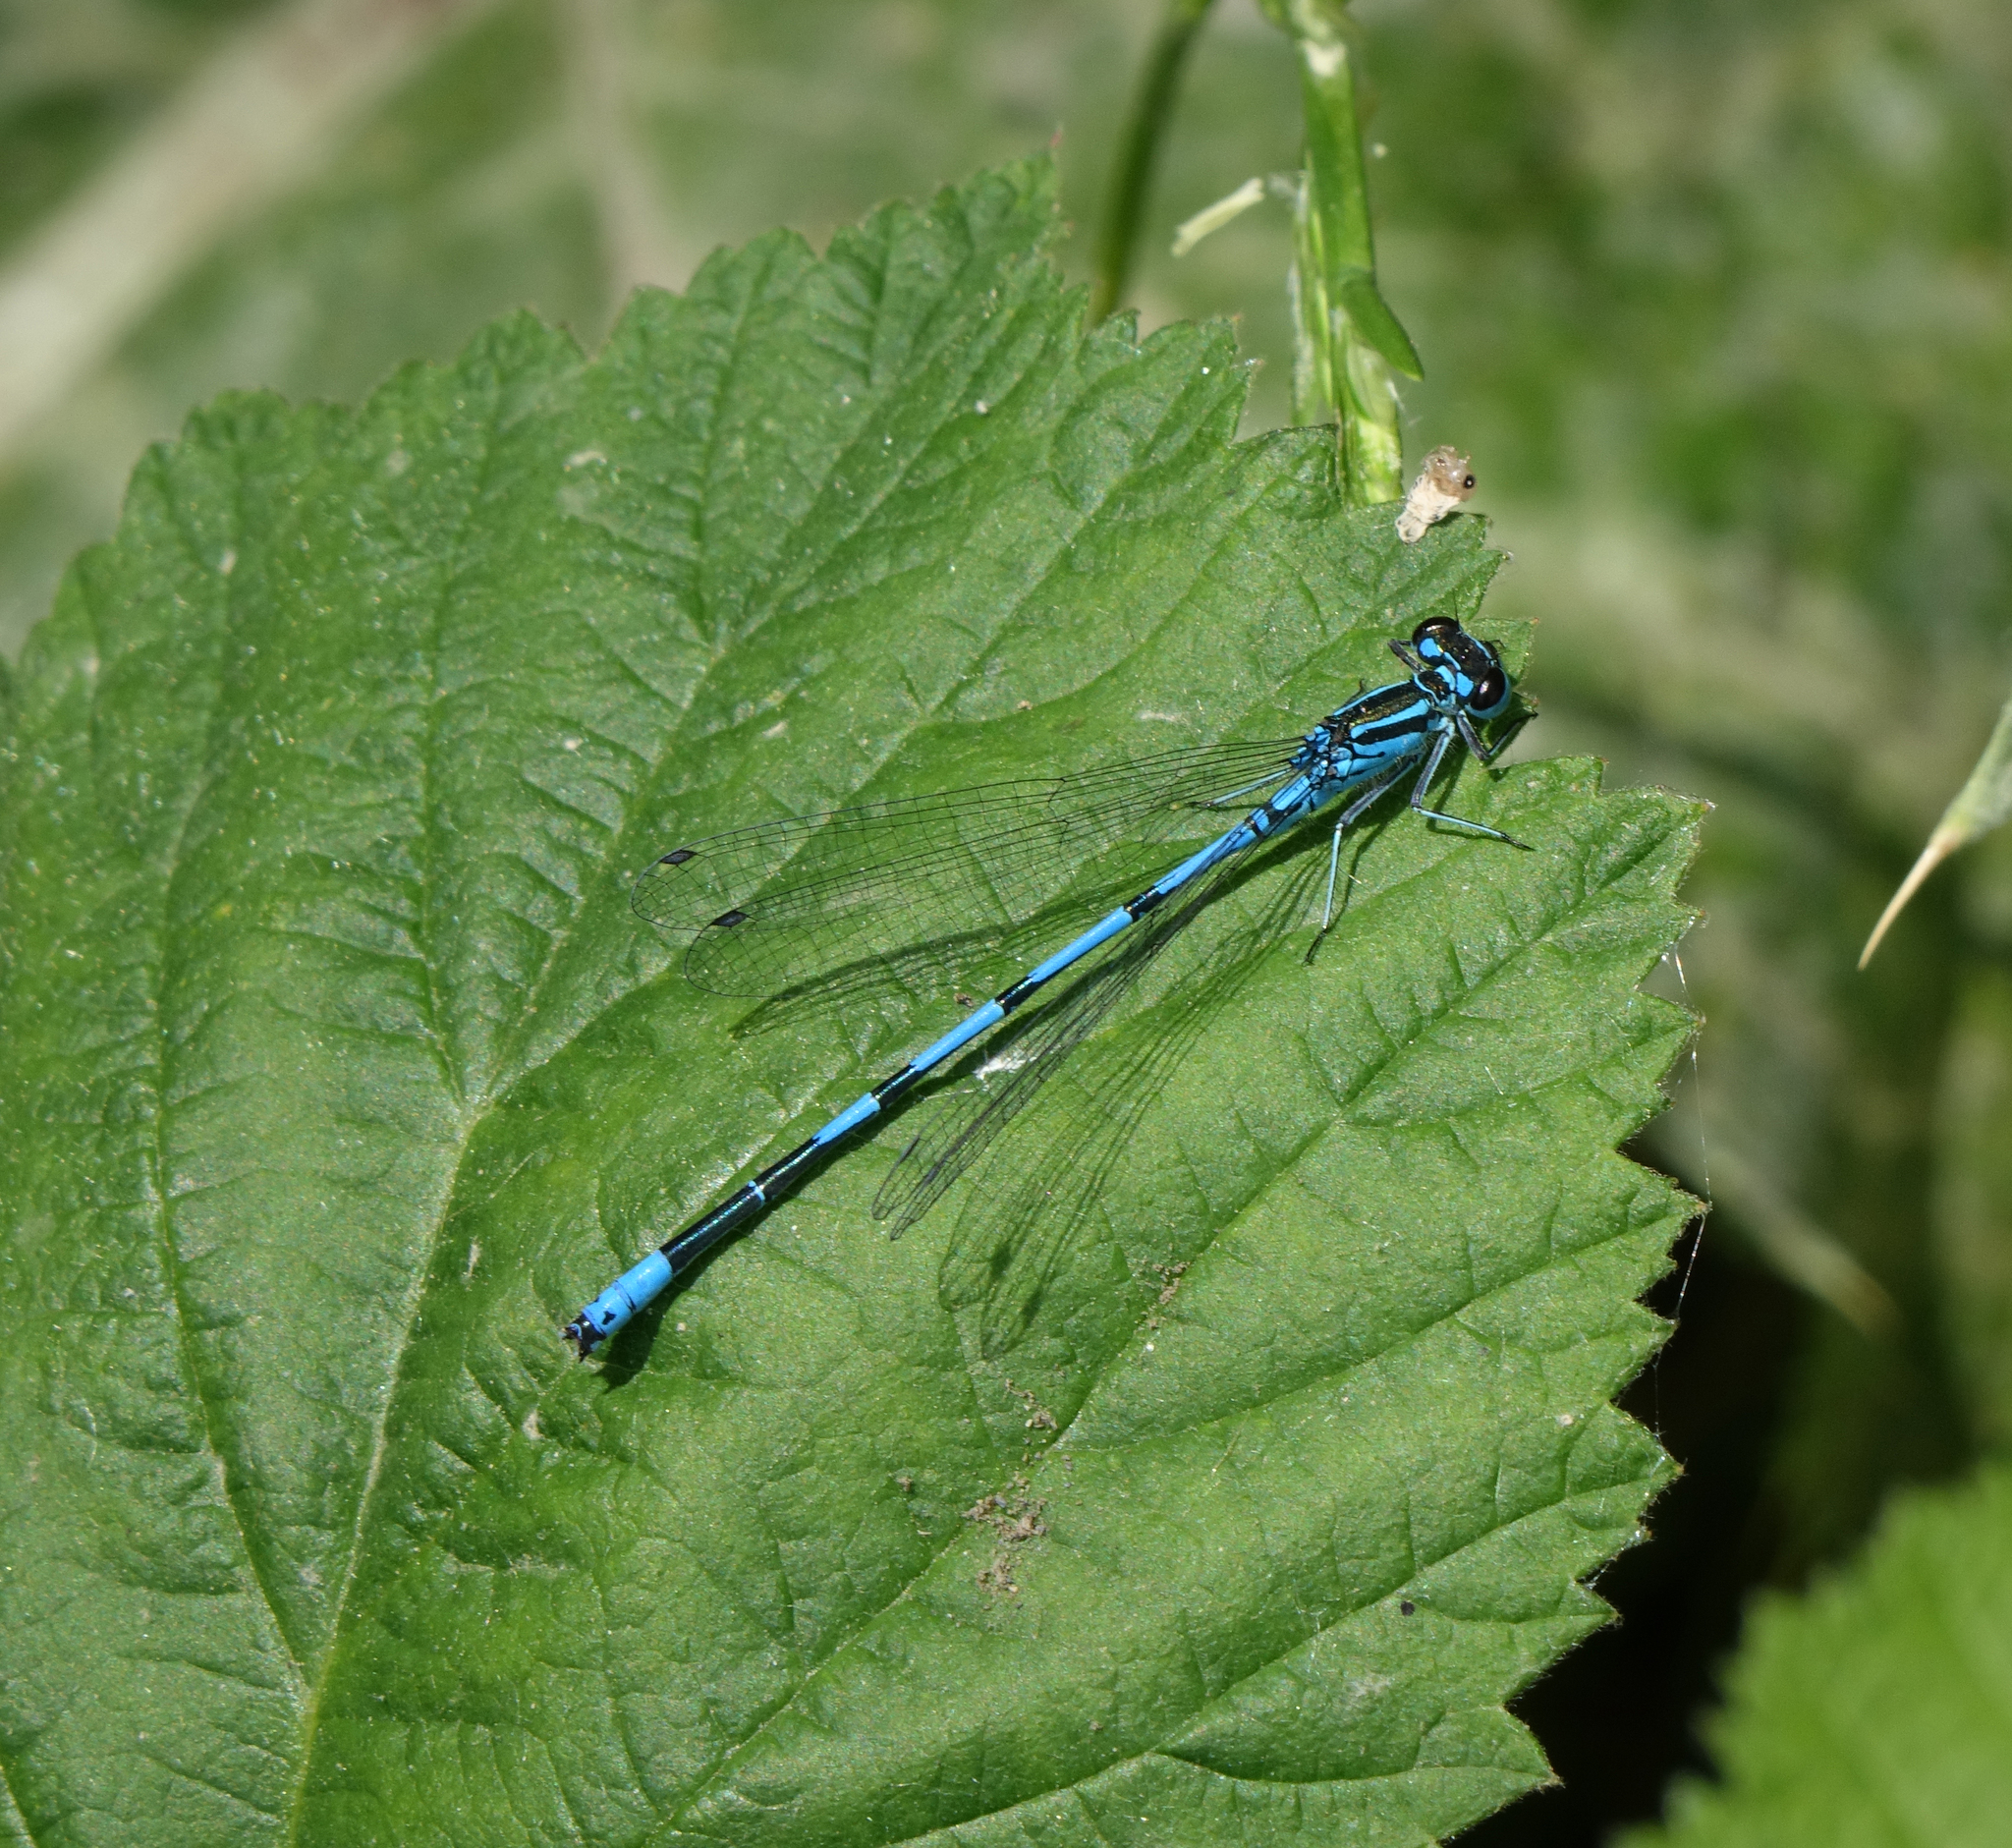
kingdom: Animalia
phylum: Arthropoda
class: Insecta
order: Odonata
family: Coenagrionidae
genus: Coenagrion
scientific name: Coenagrion australocaspicum
